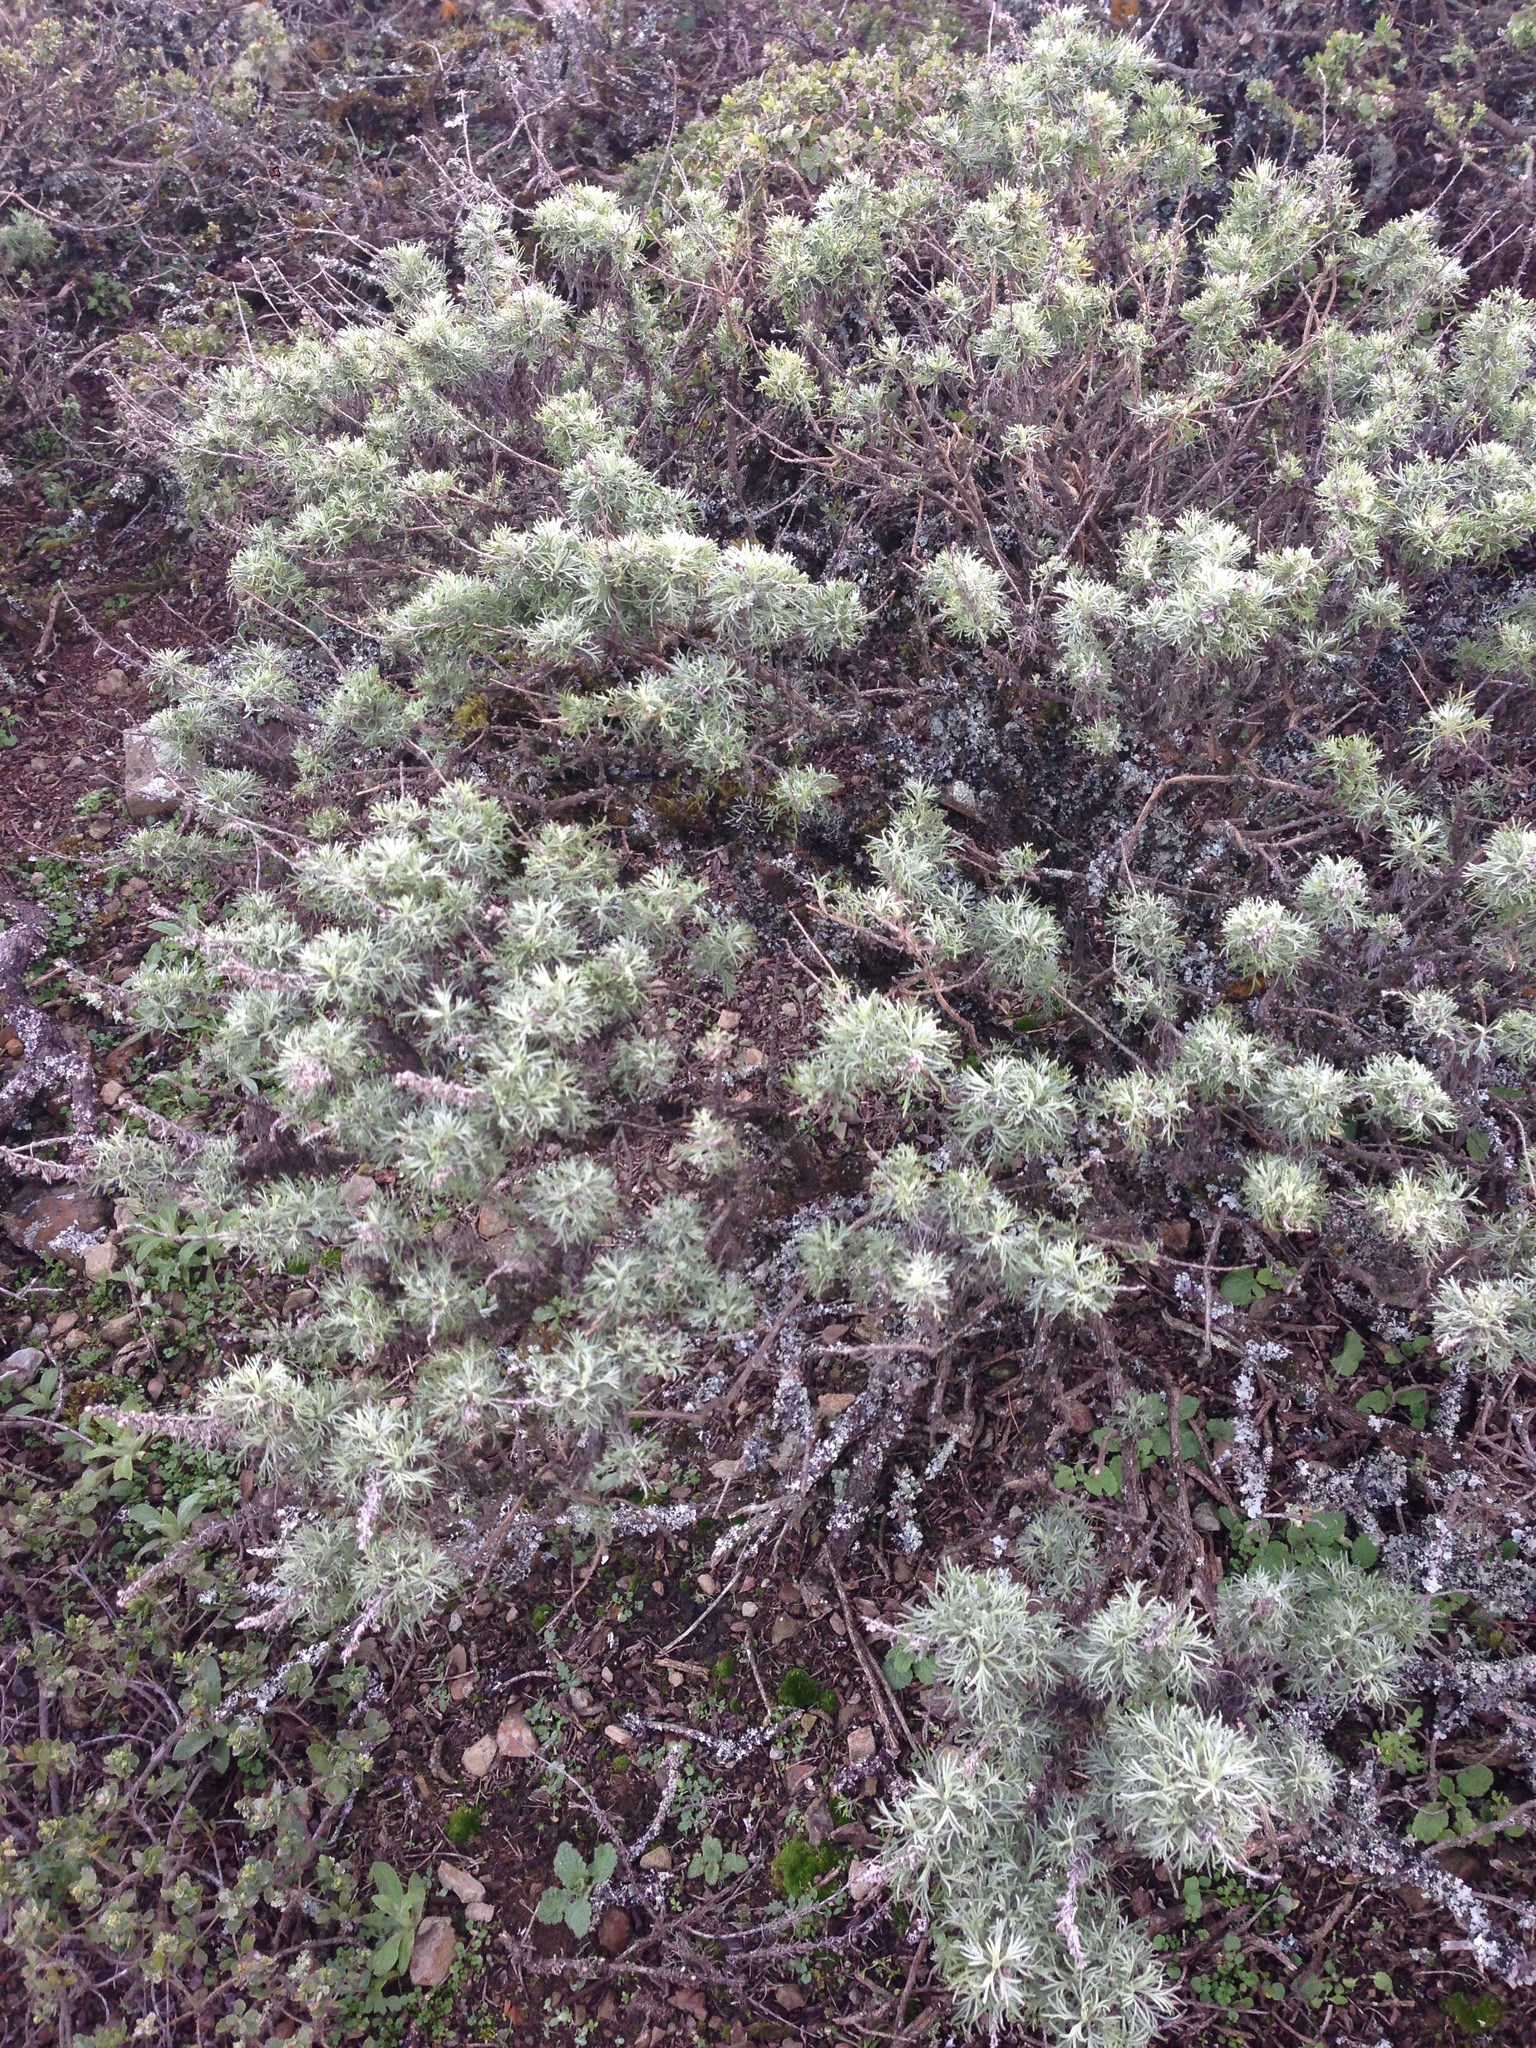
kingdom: Plantae
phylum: Tracheophyta
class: Magnoliopsida
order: Asterales
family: Asteraceae
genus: Artemisia
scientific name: Artemisia californica
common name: California sagebrush
